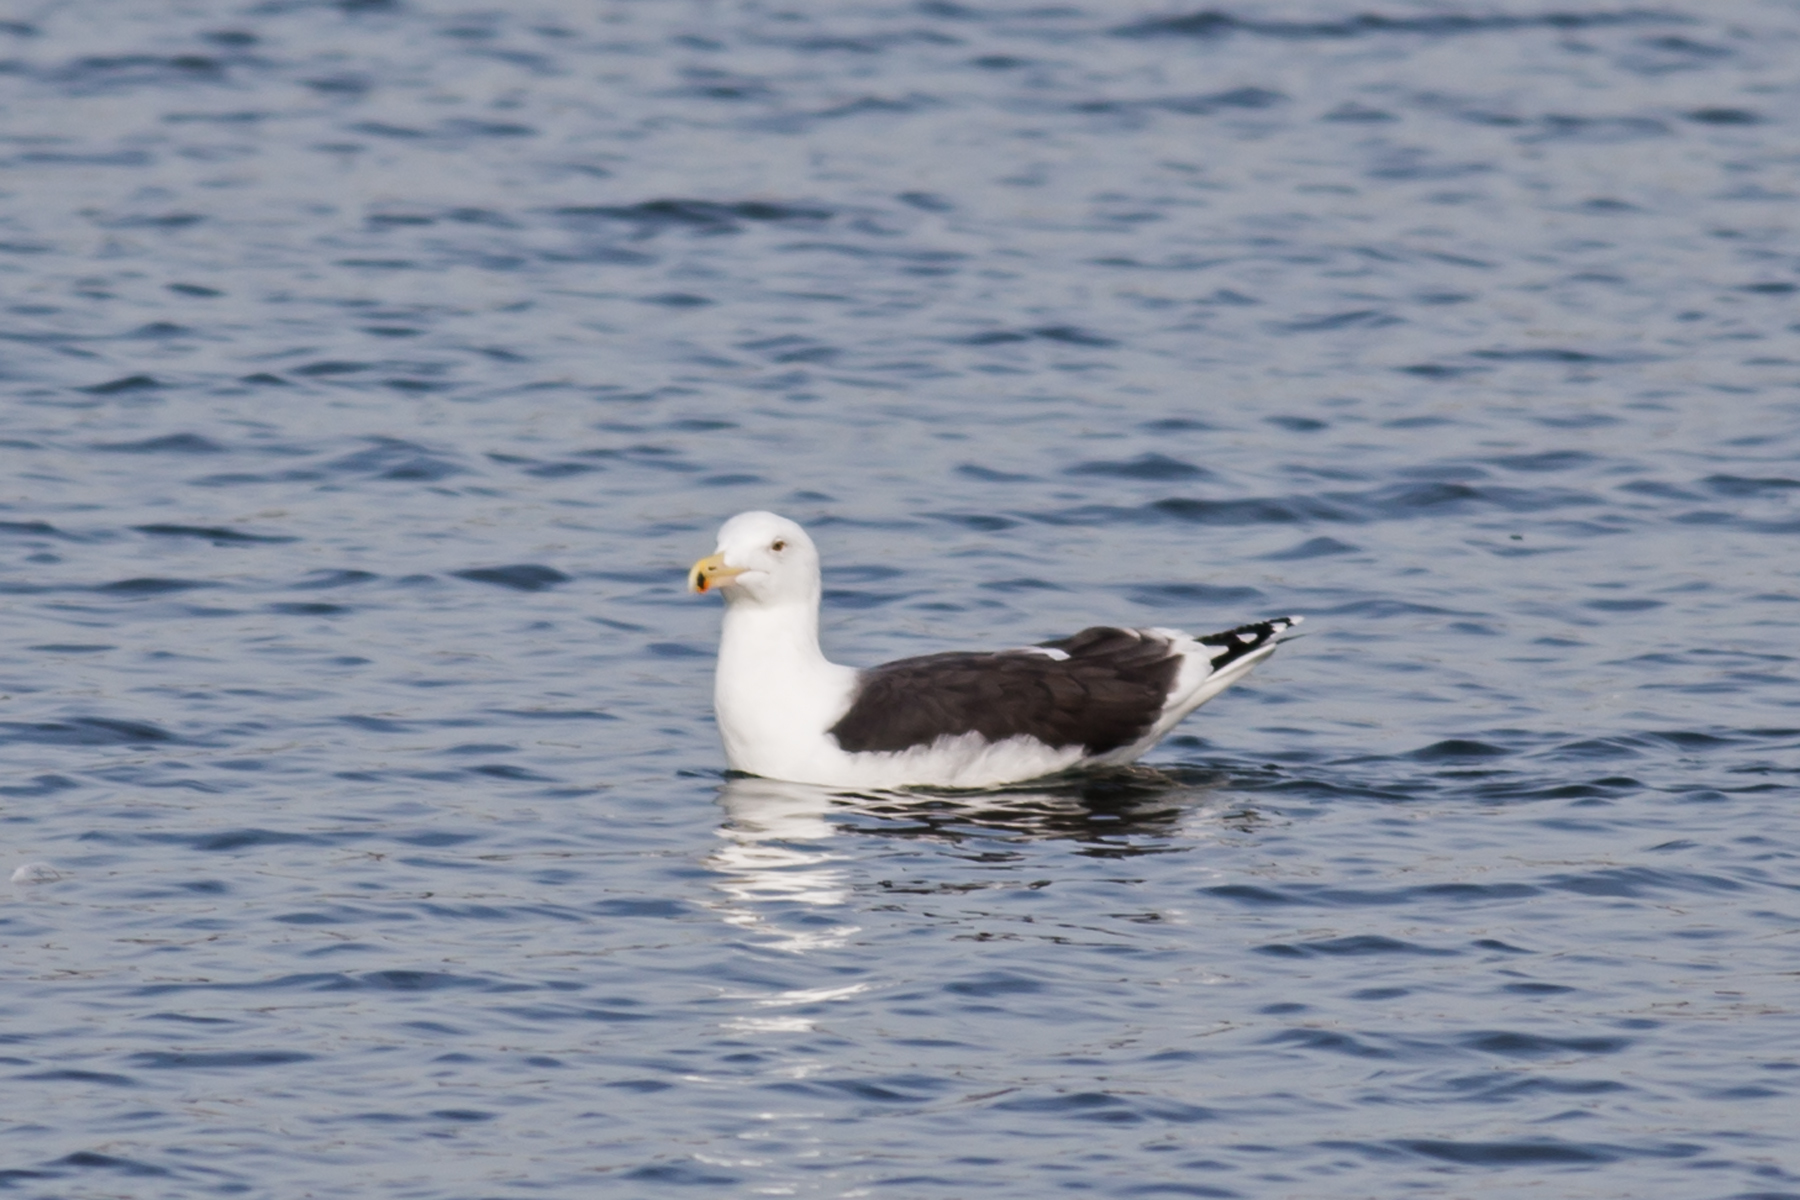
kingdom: Animalia
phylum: Chordata
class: Aves
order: Charadriiformes
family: Laridae
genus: Larus
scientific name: Larus marinus
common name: Great black-backed gull
